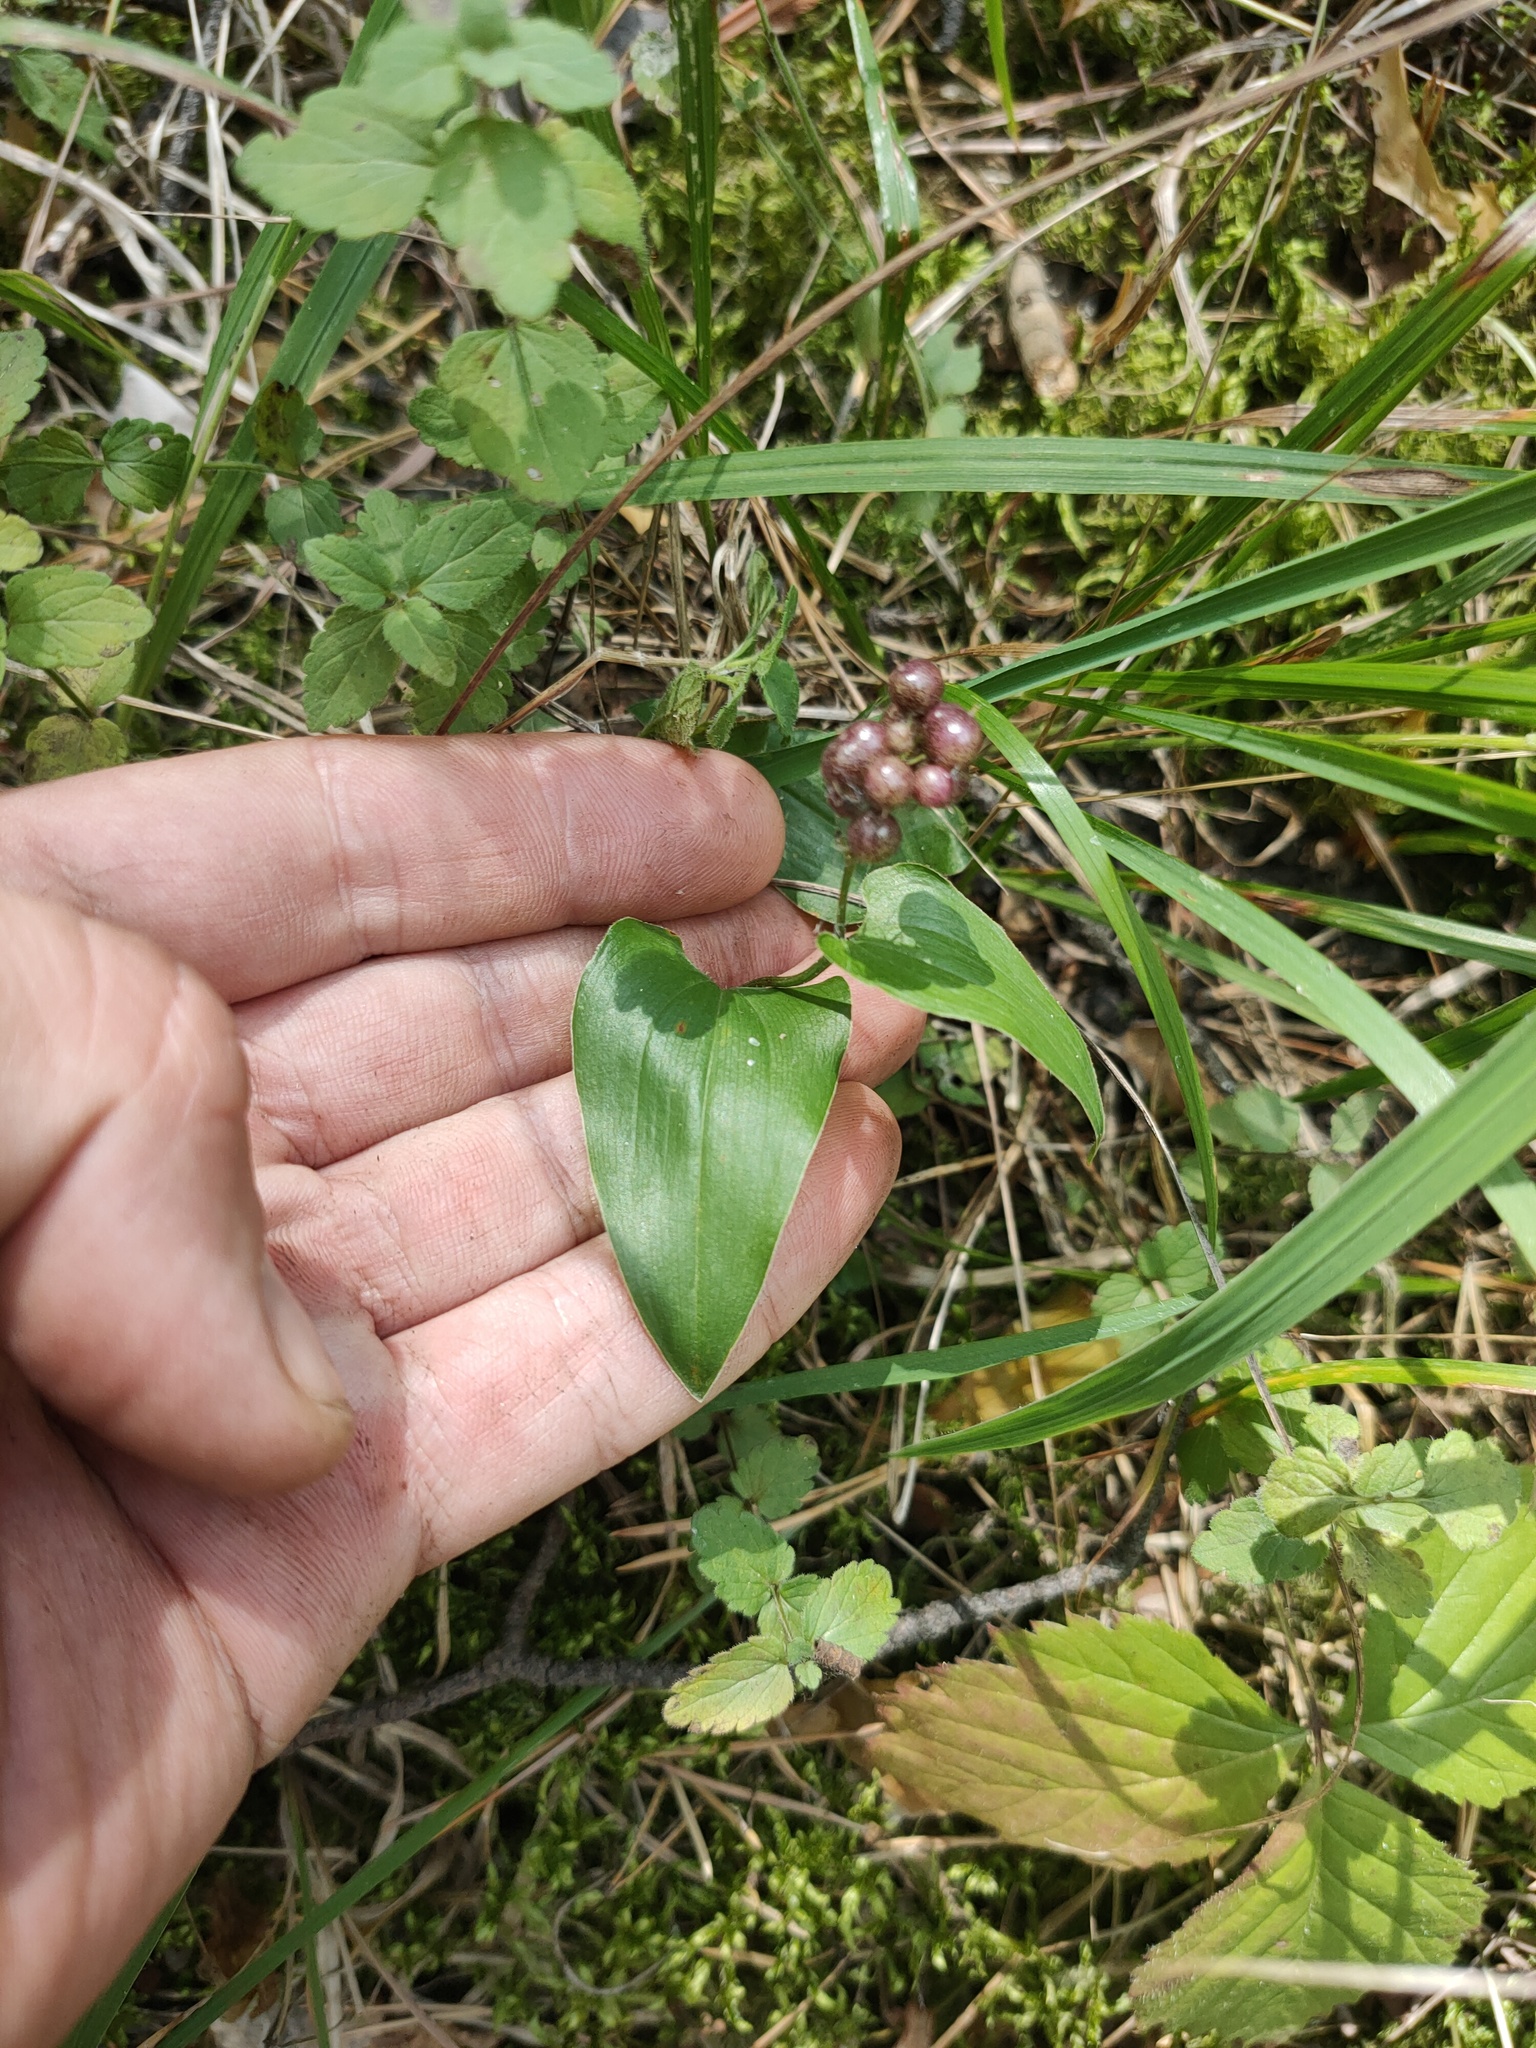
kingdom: Plantae
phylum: Tracheophyta
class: Liliopsida
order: Asparagales
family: Asparagaceae
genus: Maianthemum
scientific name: Maianthemum bifolium
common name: May lily
